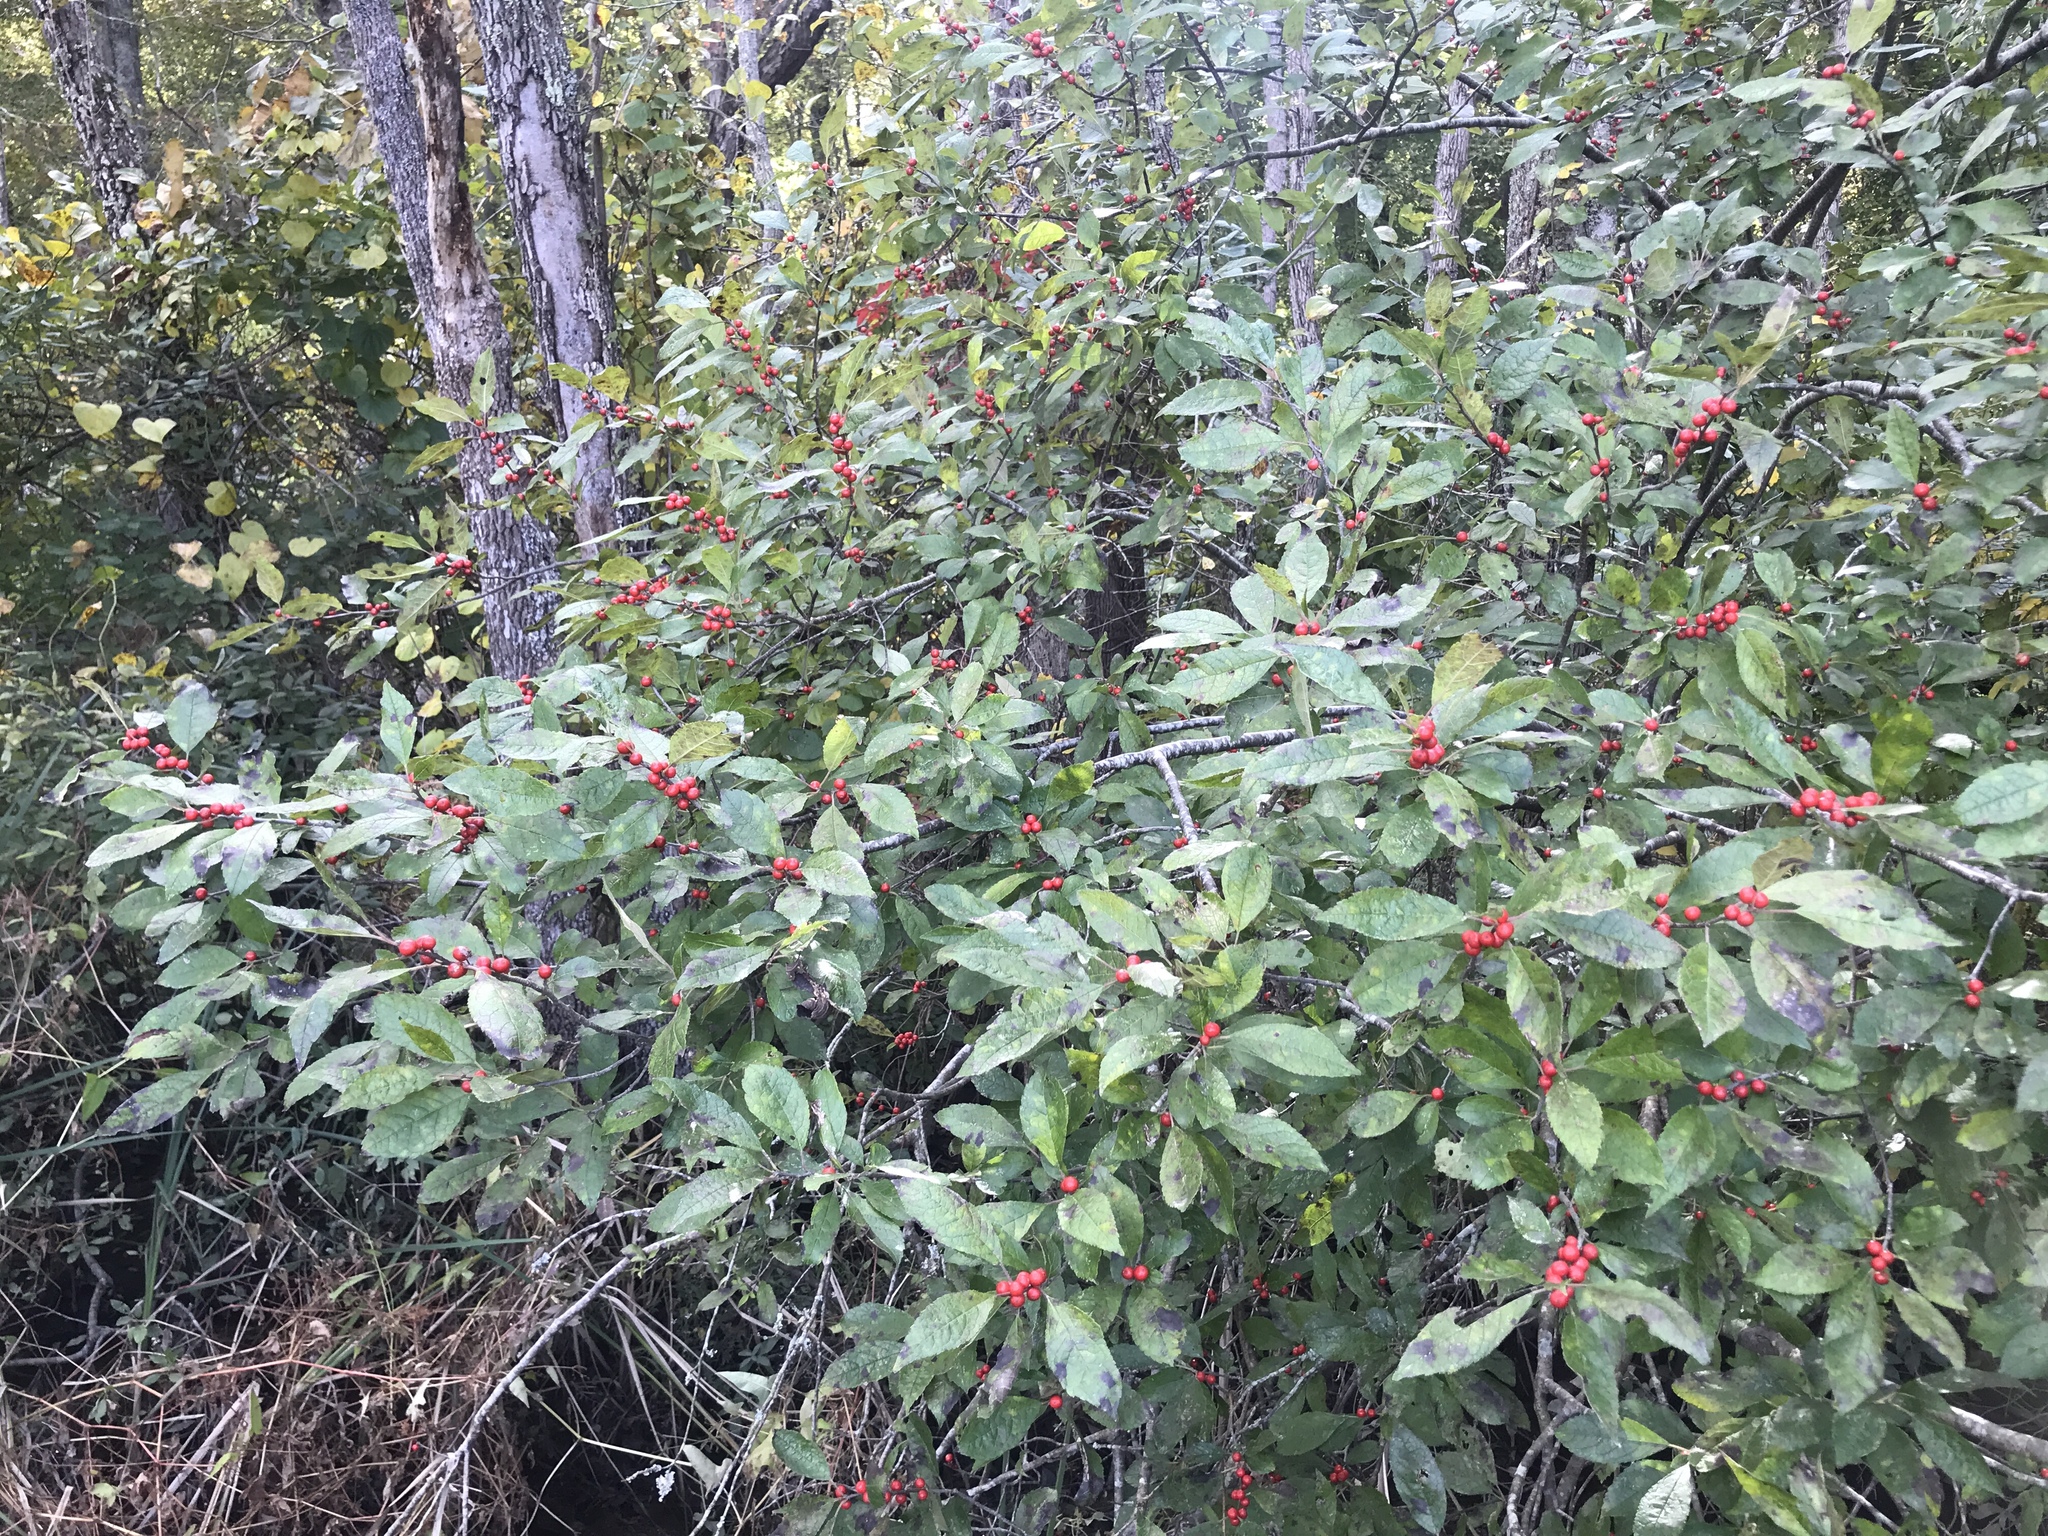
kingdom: Plantae
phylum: Tracheophyta
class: Magnoliopsida
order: Aquifoliales
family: Aquifoliaceae
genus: Ilex
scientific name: Ilex verticillata
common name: Virginia winterberry
